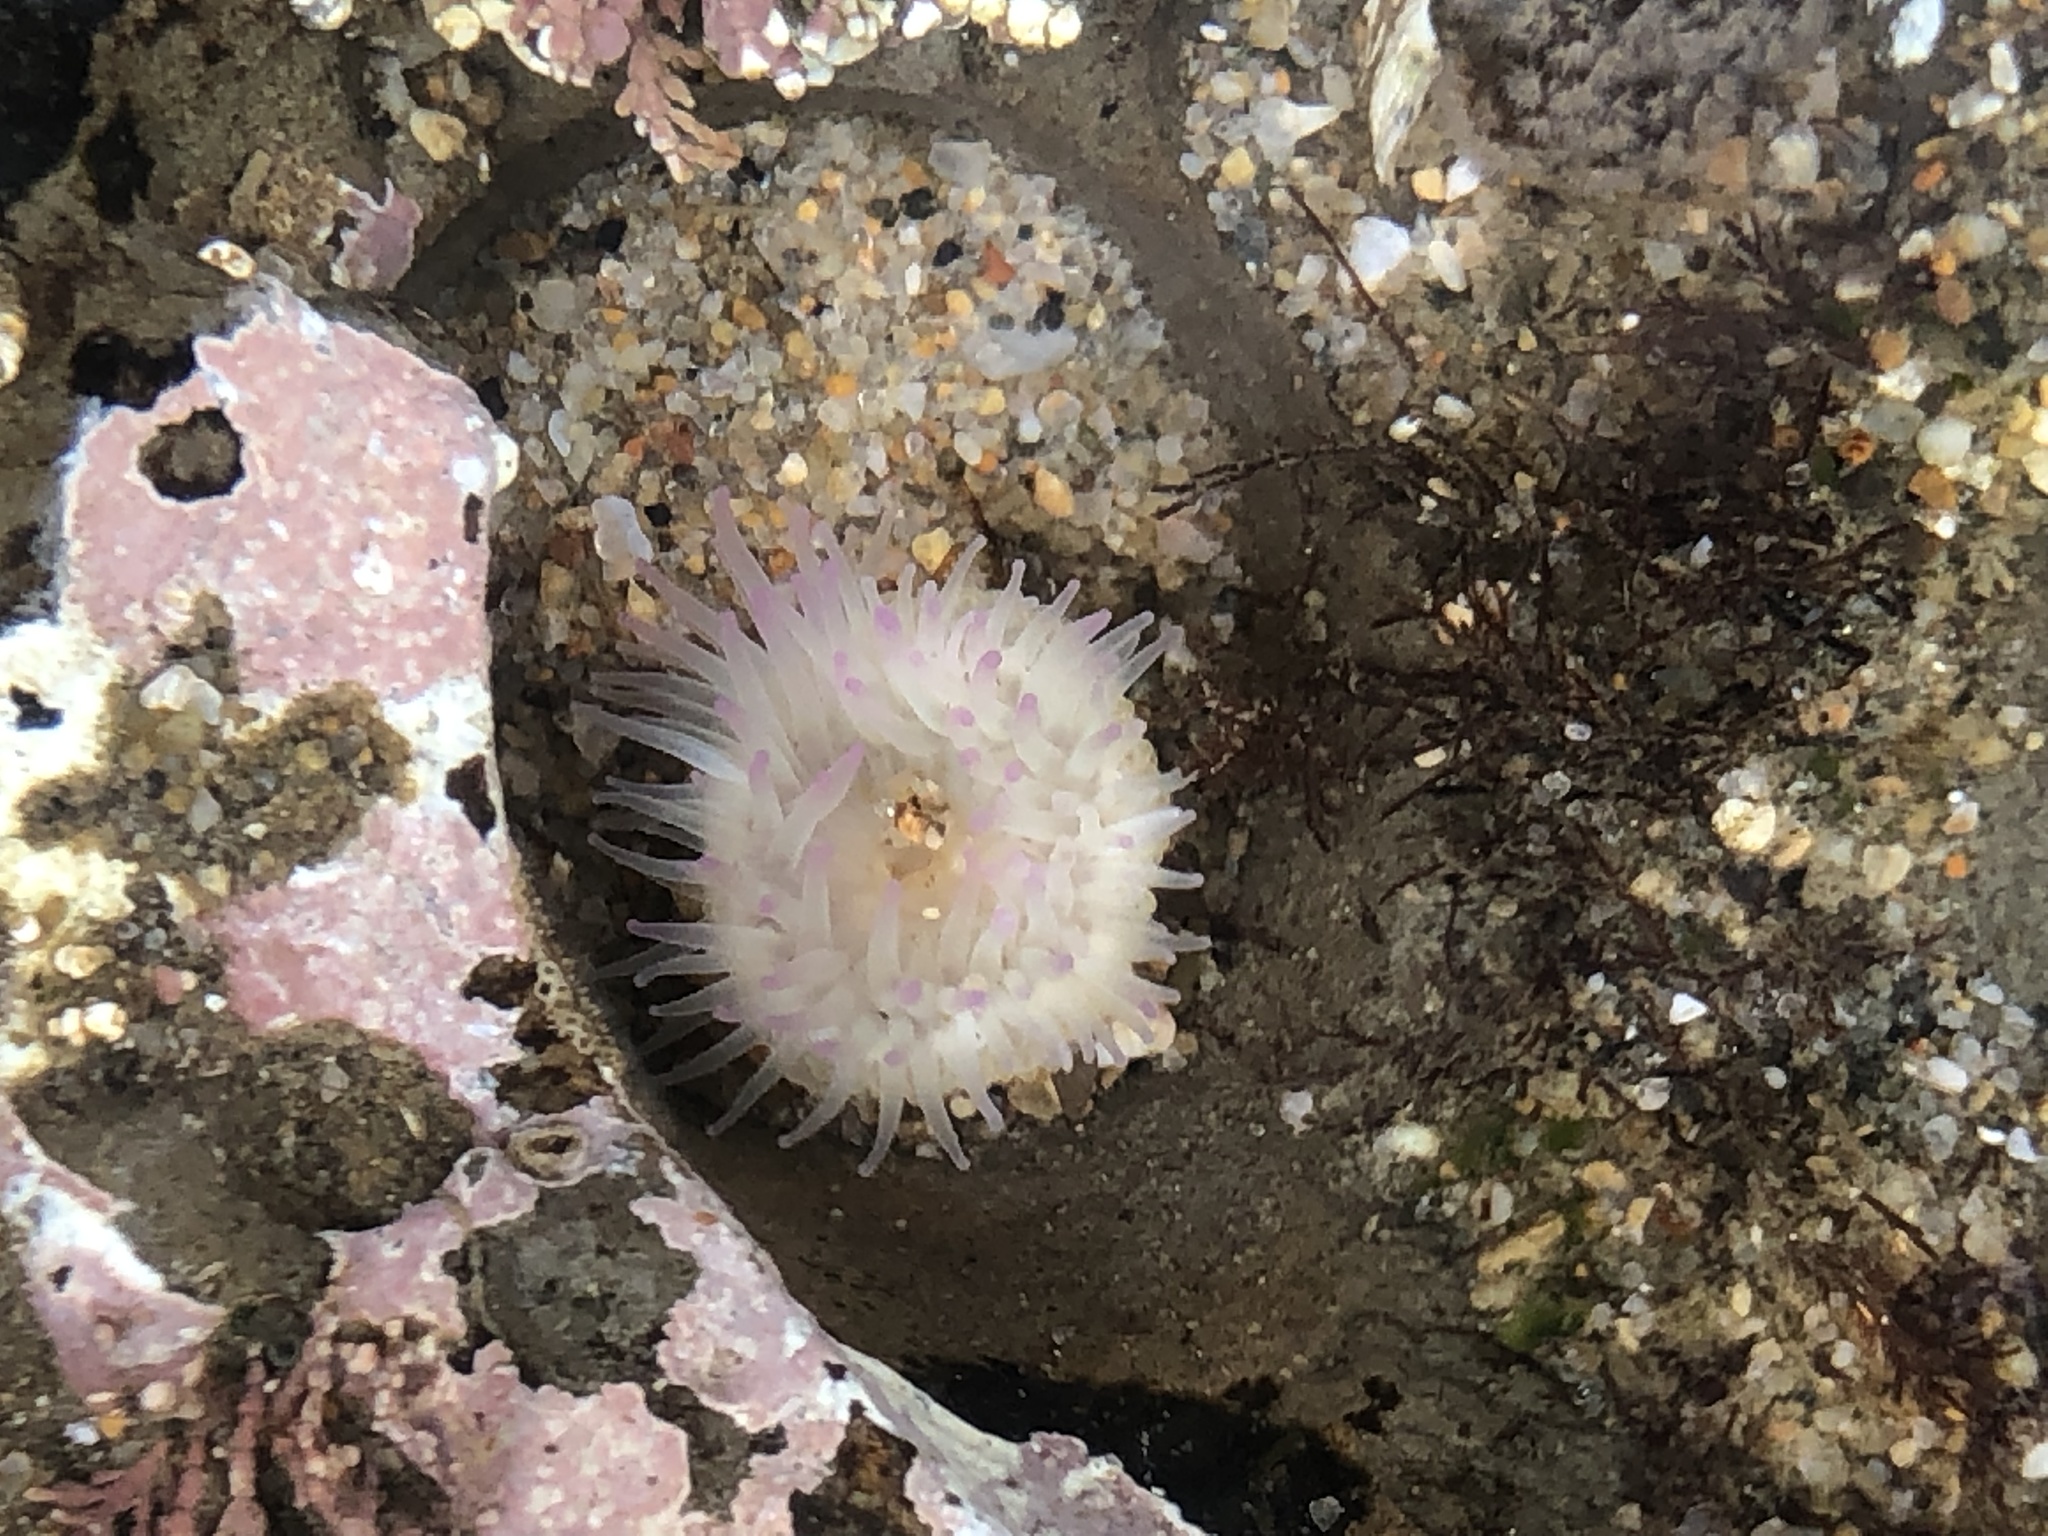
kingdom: Animalia
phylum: Cnidaria
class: Anthozoa
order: Actiniaria
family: Actiniidae
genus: Anthopleura
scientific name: Anthopleura elegantissima
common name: Clonal anemone
